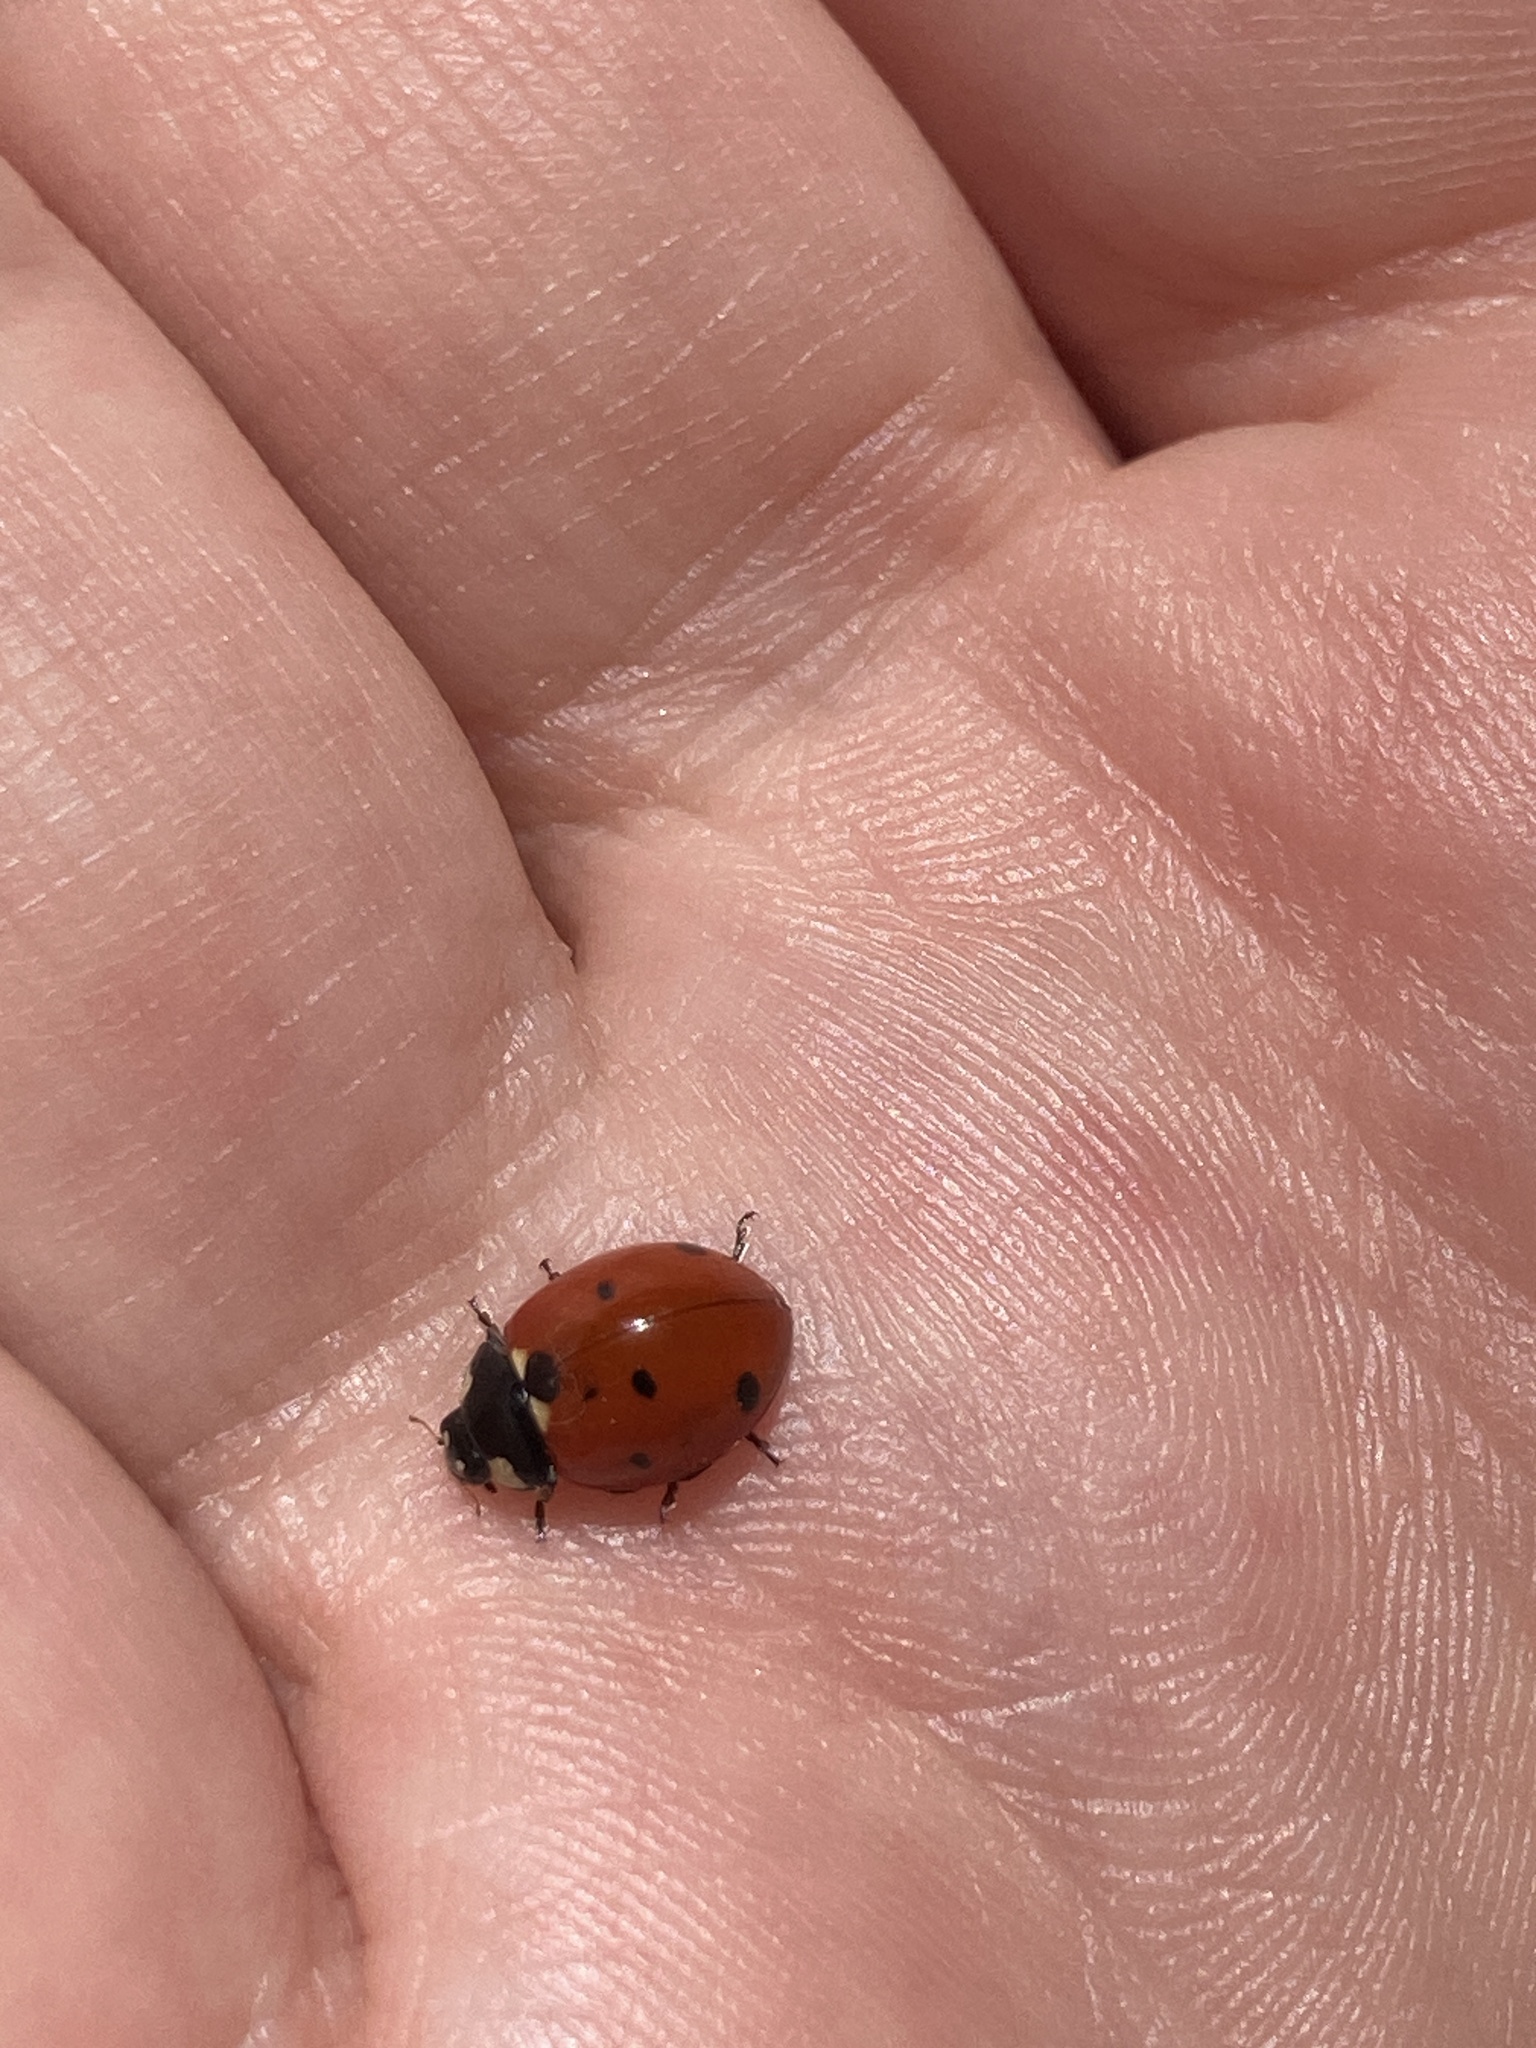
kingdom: Animalia
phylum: Arthropoda
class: Insecta
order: Coleoptera
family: Coccinellidae
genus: Coccinella
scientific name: Coccinella septempunctata
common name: Sevenspotted lady beetle
